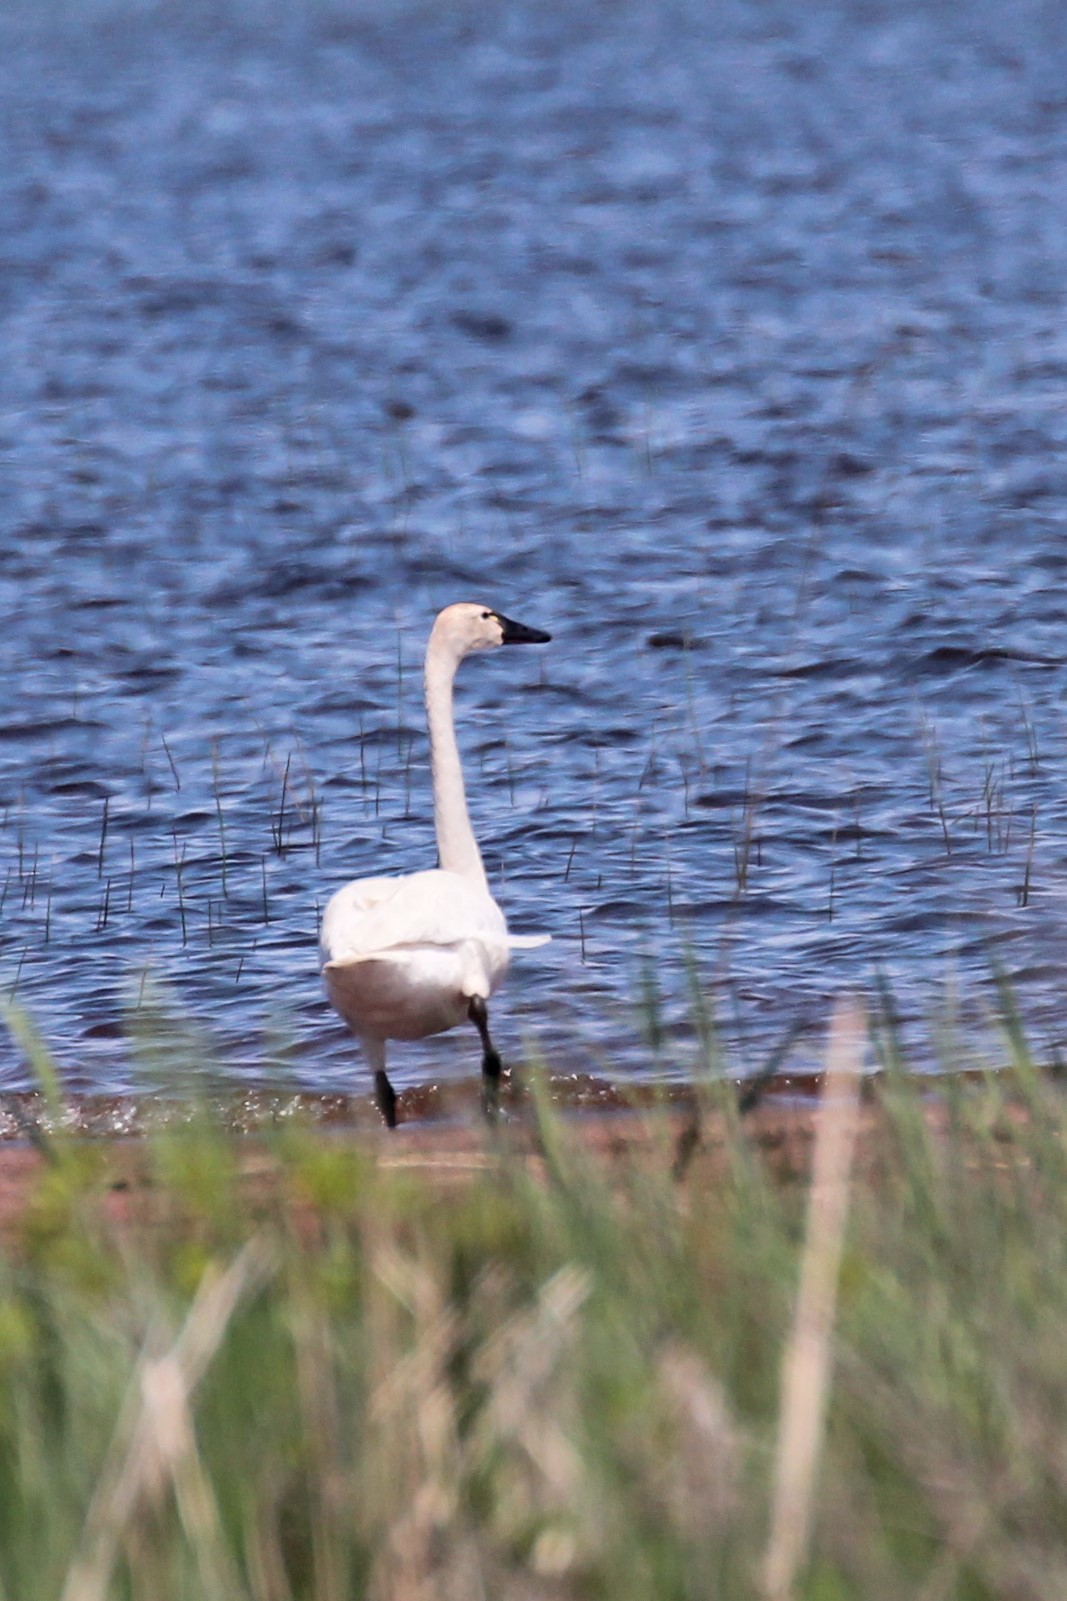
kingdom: Animalia
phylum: Chordata
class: Aves
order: Anseriformes
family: Anatidae
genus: Cygnus
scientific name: Cygnus columbianus
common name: Tundra swan
